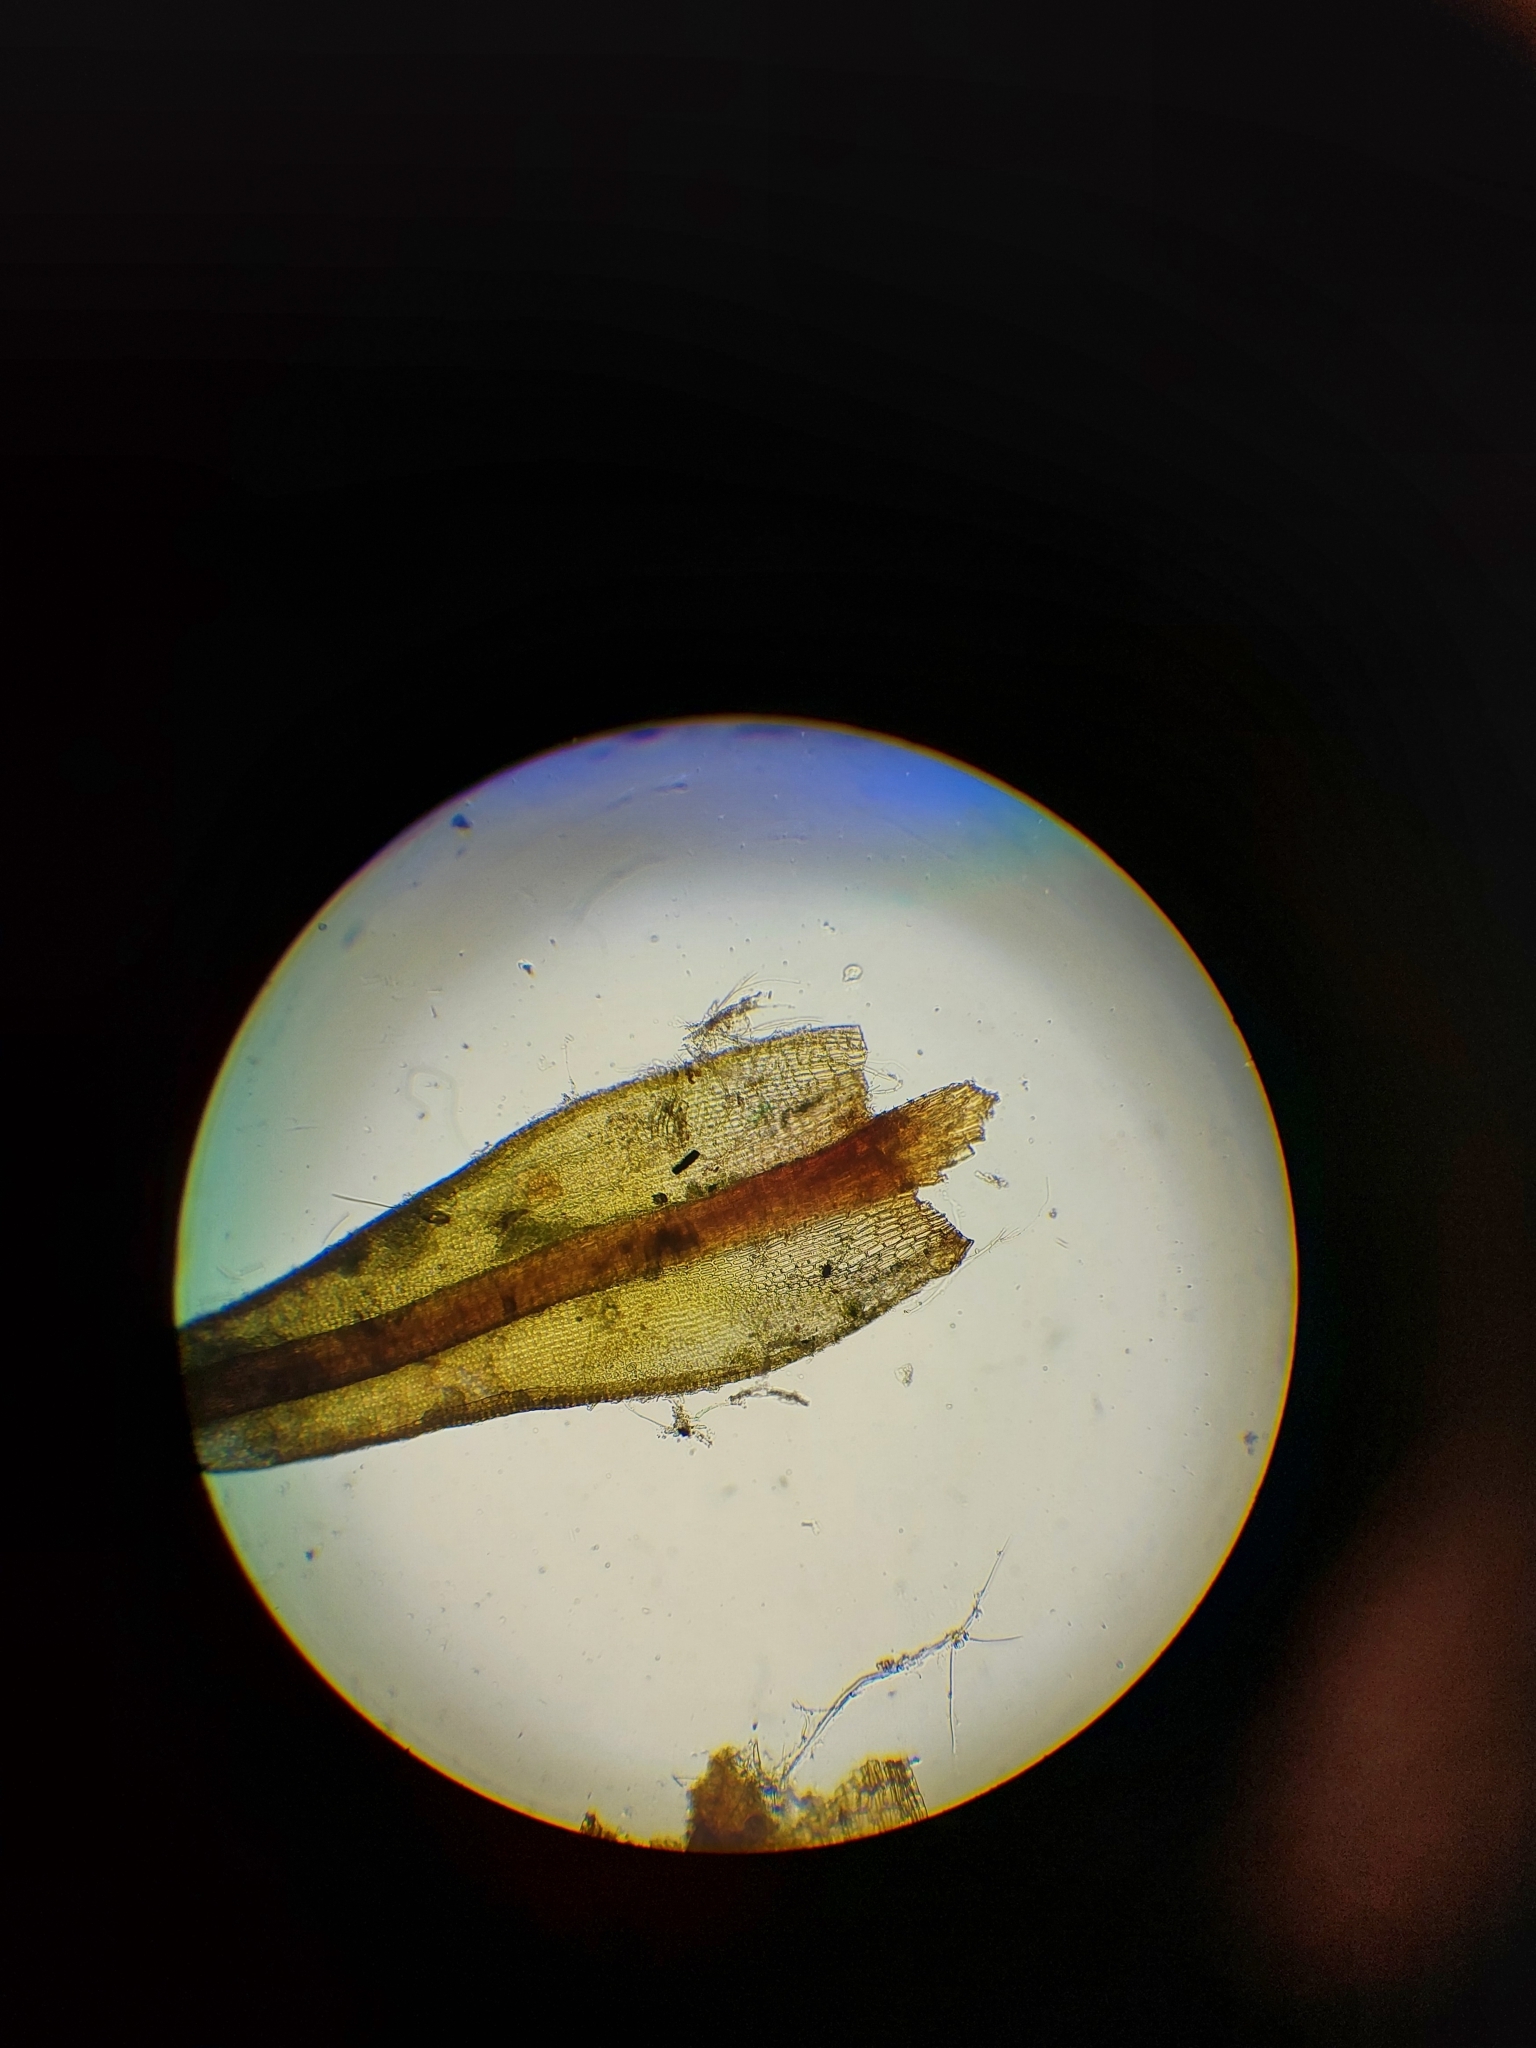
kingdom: Plantae
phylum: Bryophyta
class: Bryopsida
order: Dicranales
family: Ditrichaceae
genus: Ceratodon
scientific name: Ceratodon purpureus
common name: Redshank
